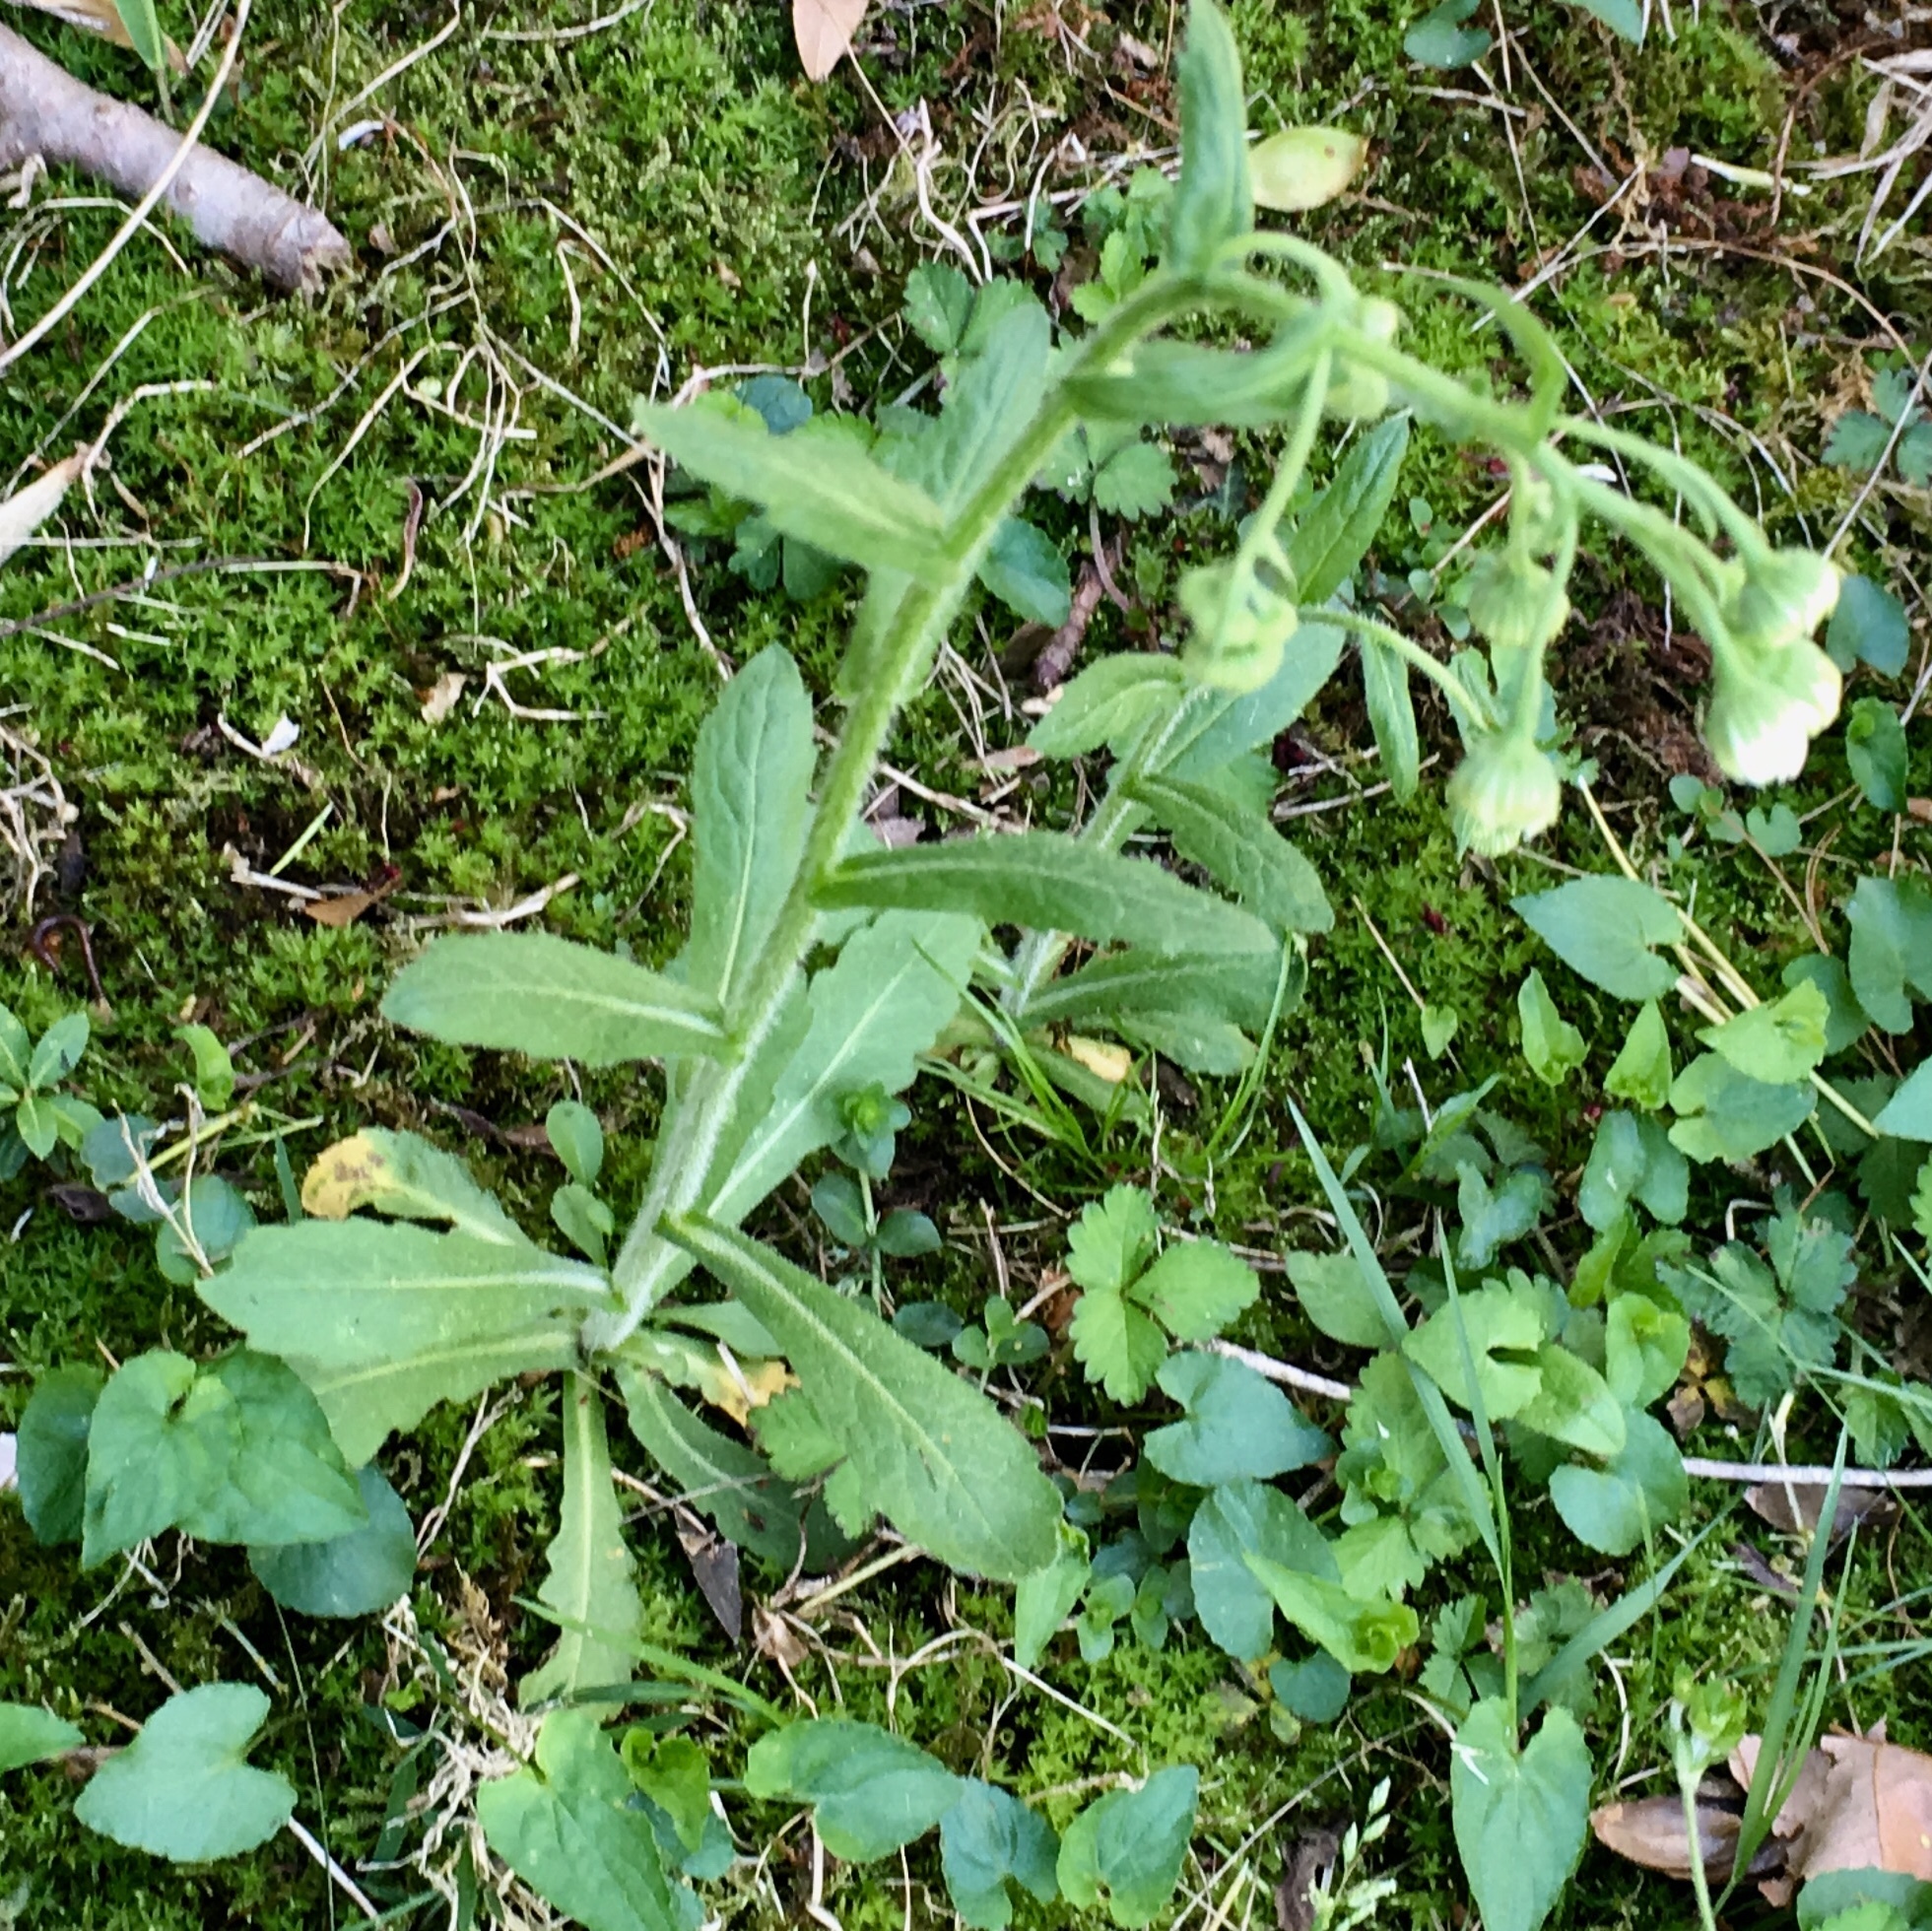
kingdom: Plantae
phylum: Tracheophyta
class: Magnoliopsida
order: Asterales
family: Asteraceae
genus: Erigeron
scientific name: Erigeron philadelphicus
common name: Robin's-plantain
